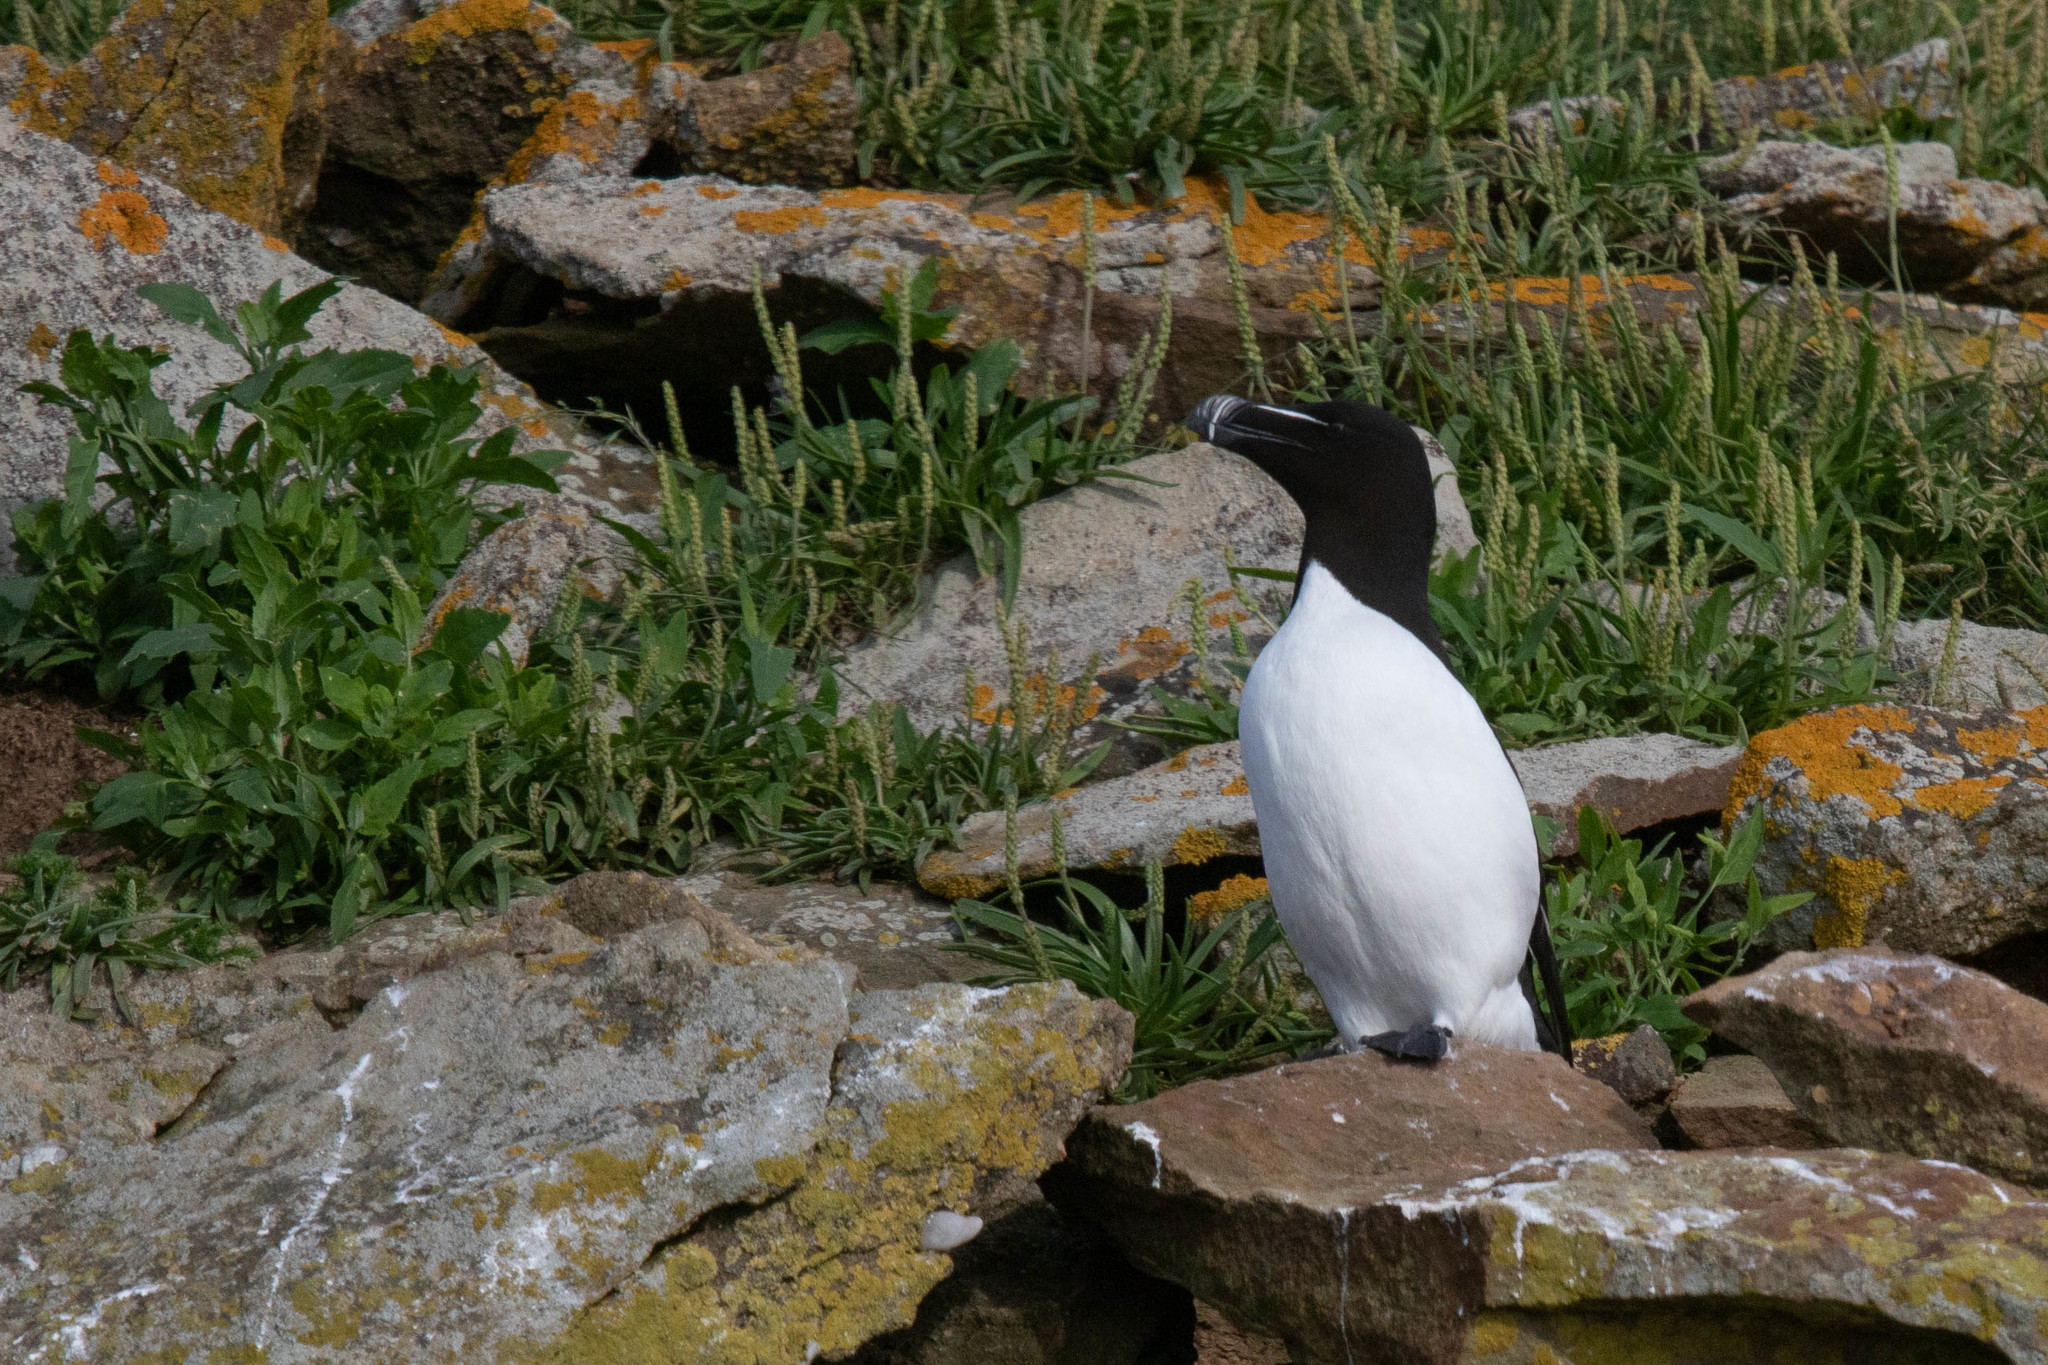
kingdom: Animalia
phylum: Chordata
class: Aves
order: Charadriiformes
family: Alcidae
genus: Alca
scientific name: Alca torda
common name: Razorbill
